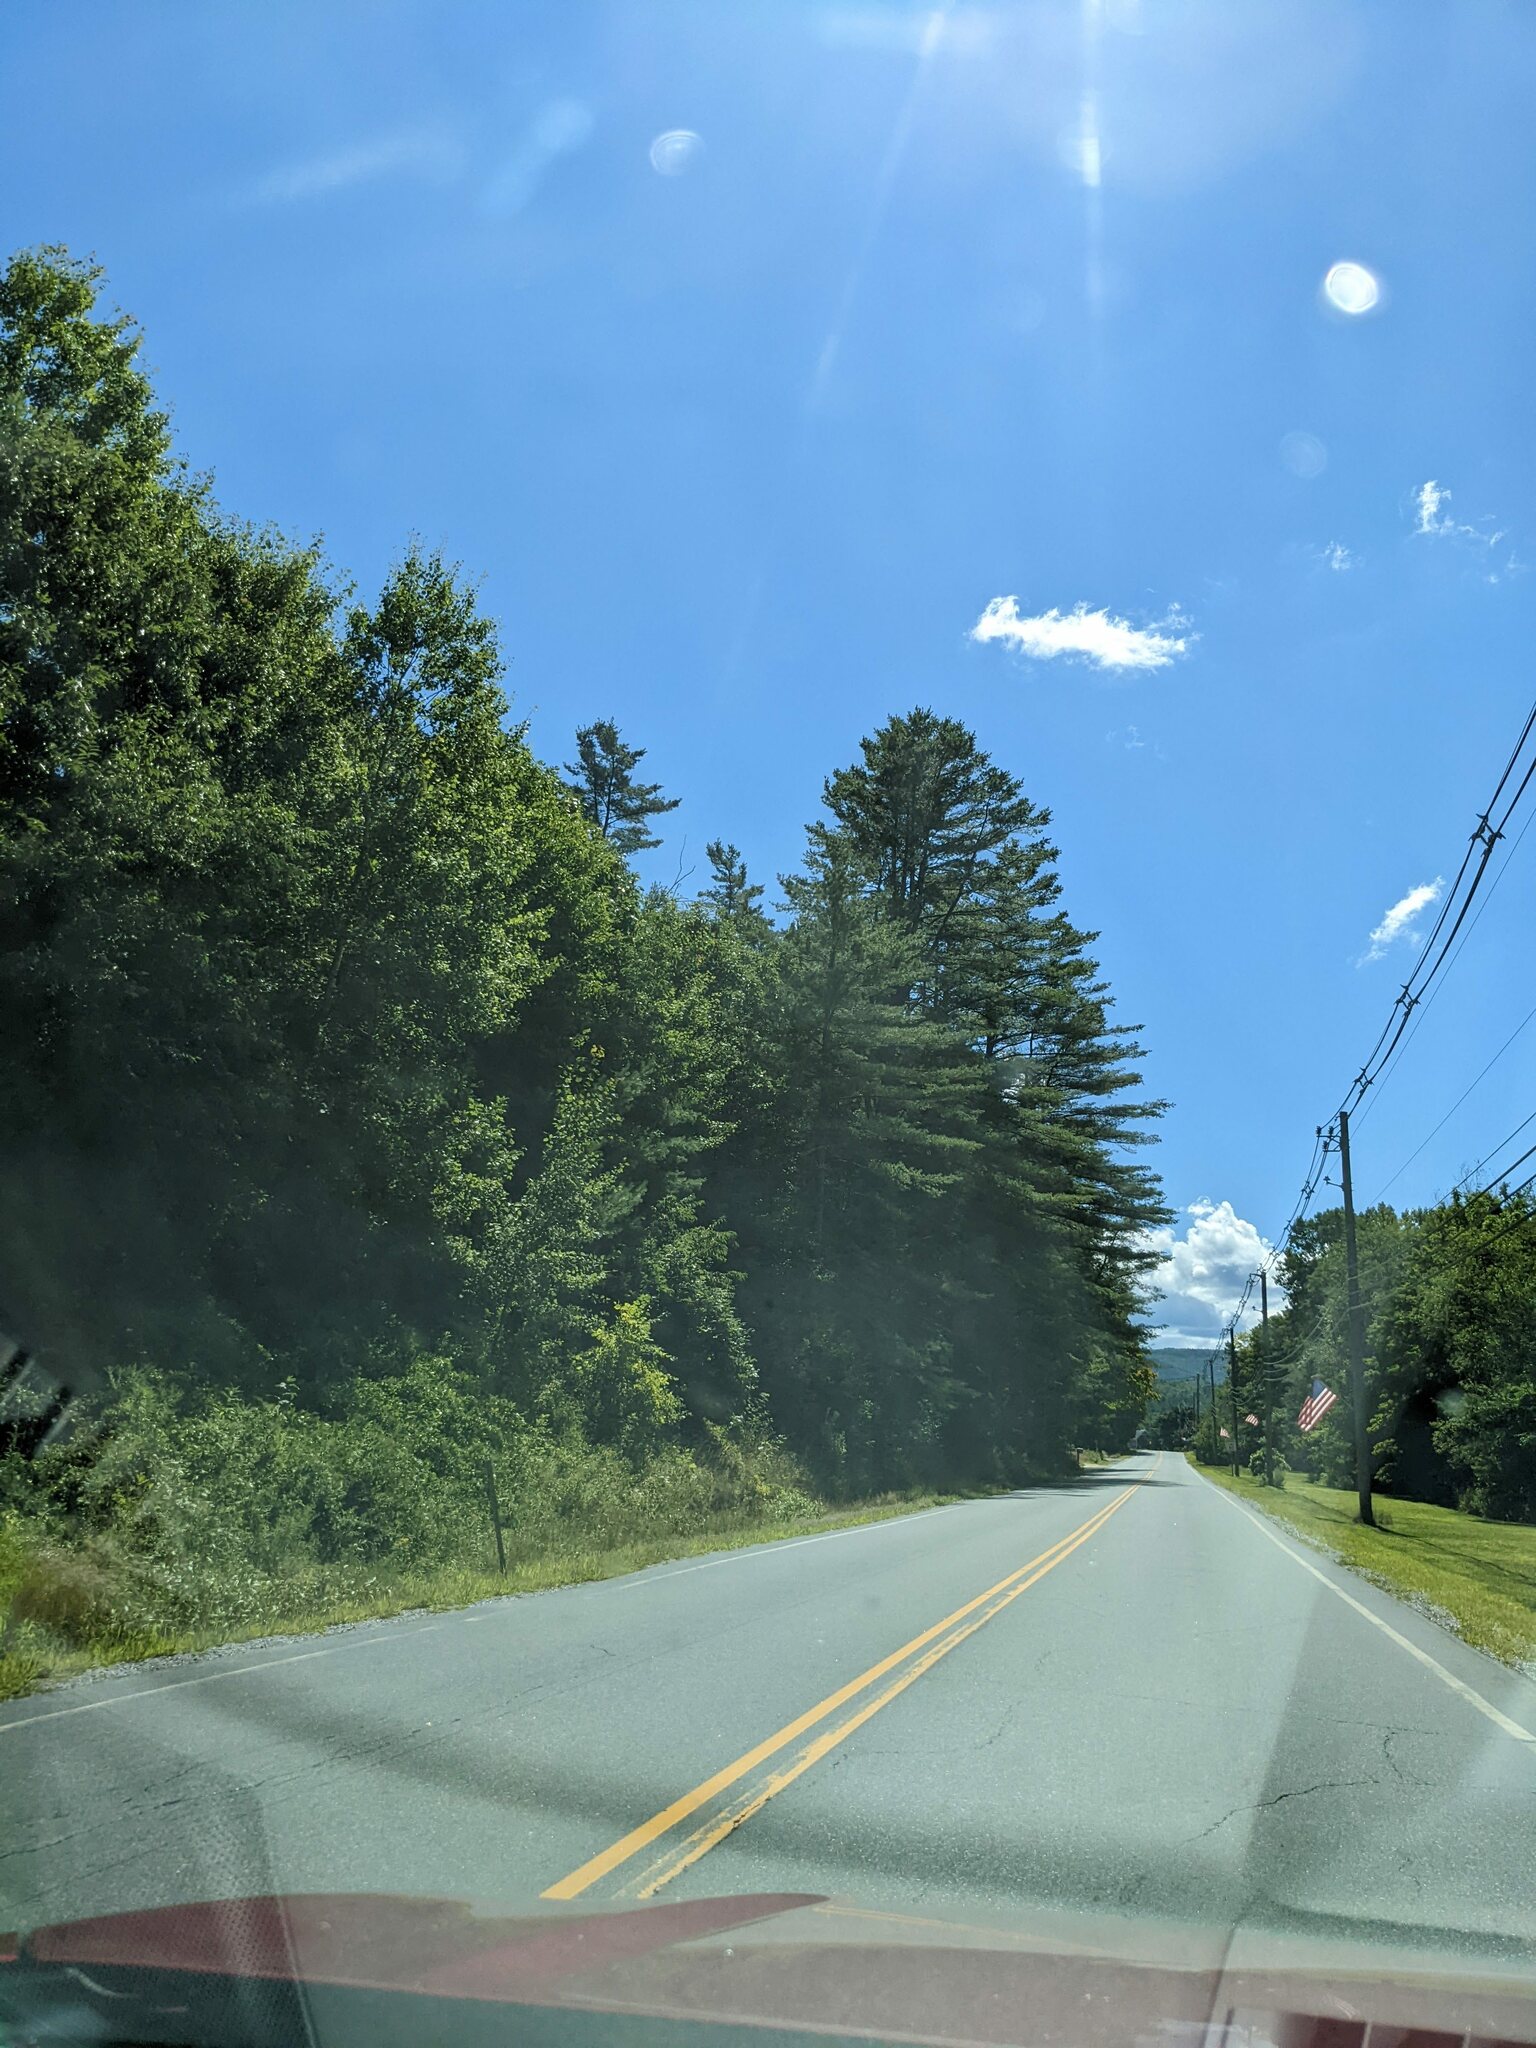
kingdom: Plantae
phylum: Tracheophyta
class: Pinopsida
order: Pinales
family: Pinaceae
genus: Pinus
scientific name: Pinus strobus
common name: Weymouth pine
